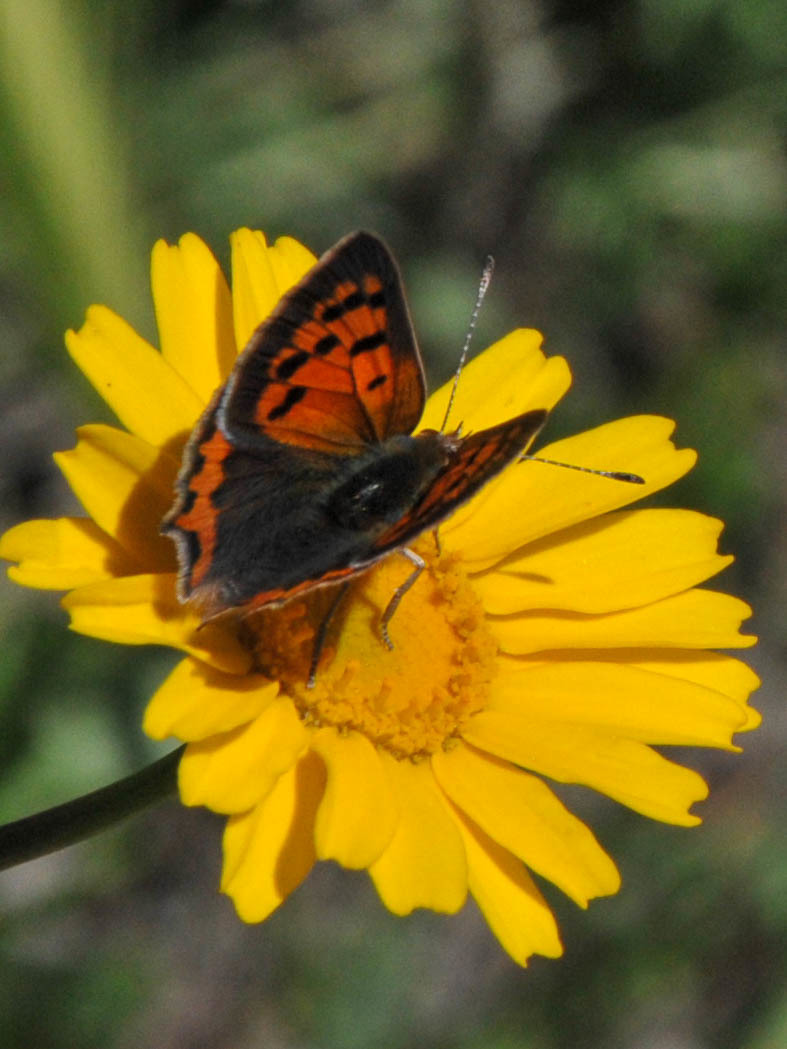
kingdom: Animalia
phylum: Arthropoda
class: Insecta
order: Lepidoptera
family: Lycaenidae
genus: Lycaena
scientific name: Lycaena phlaeas
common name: Small copper
